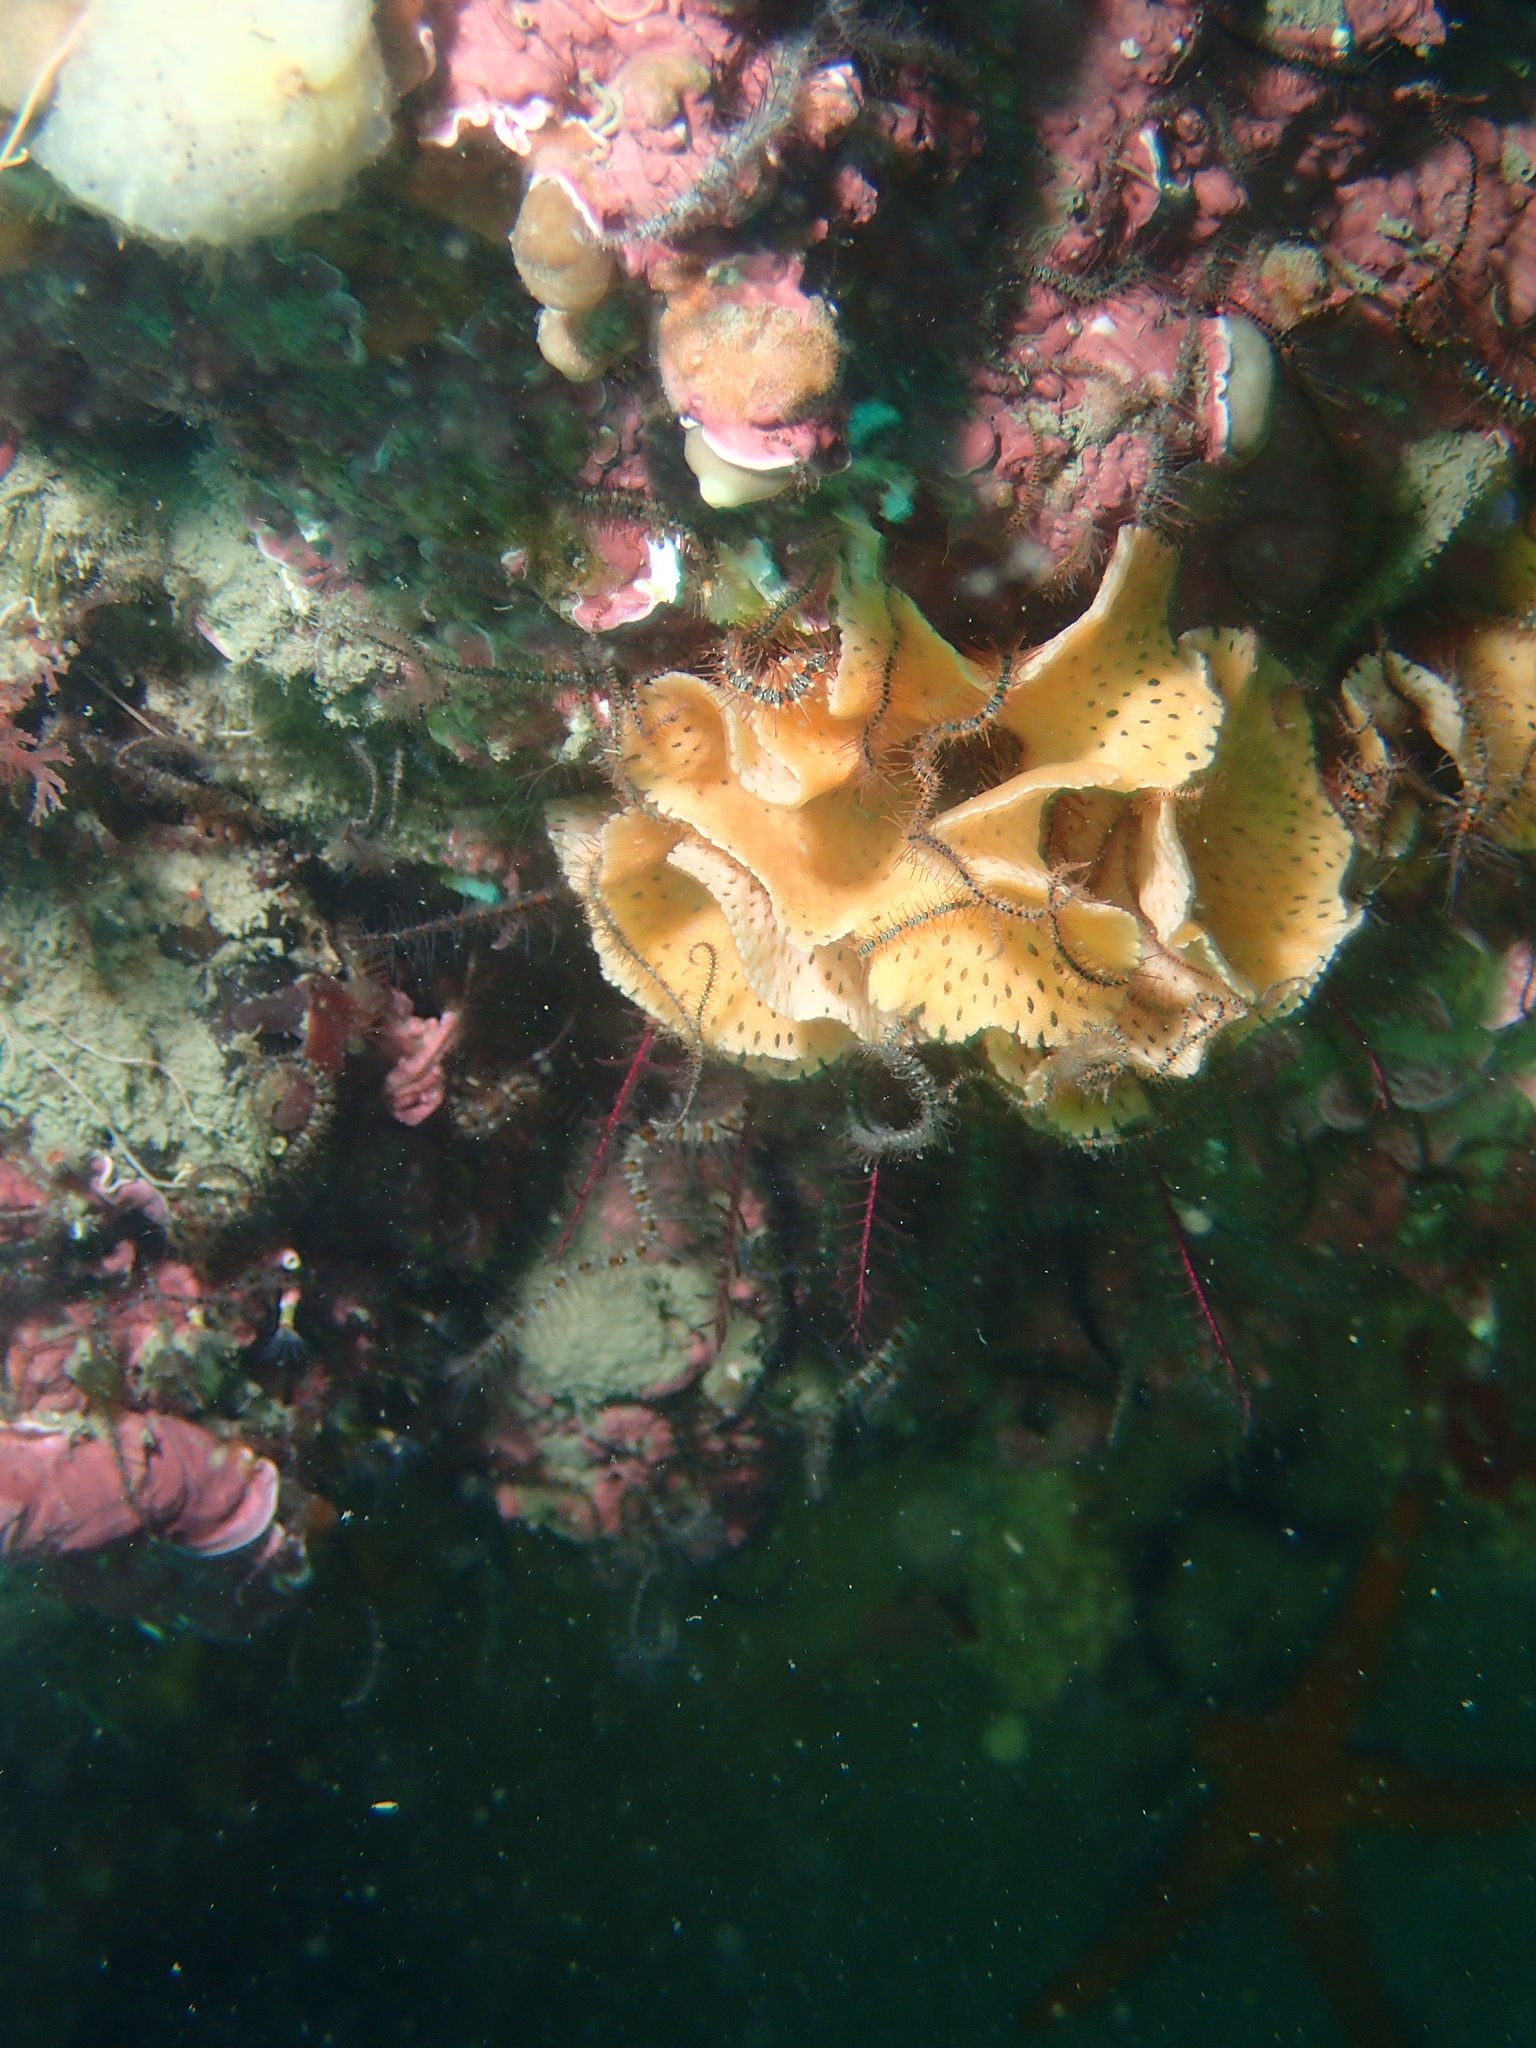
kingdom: Animalia
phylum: Bryozoa
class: Gymnolaemata
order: Cheilostomatida
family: Phidoloporidae
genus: Reteporella
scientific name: Reteporella grimaldii
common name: Neptunes' lace
